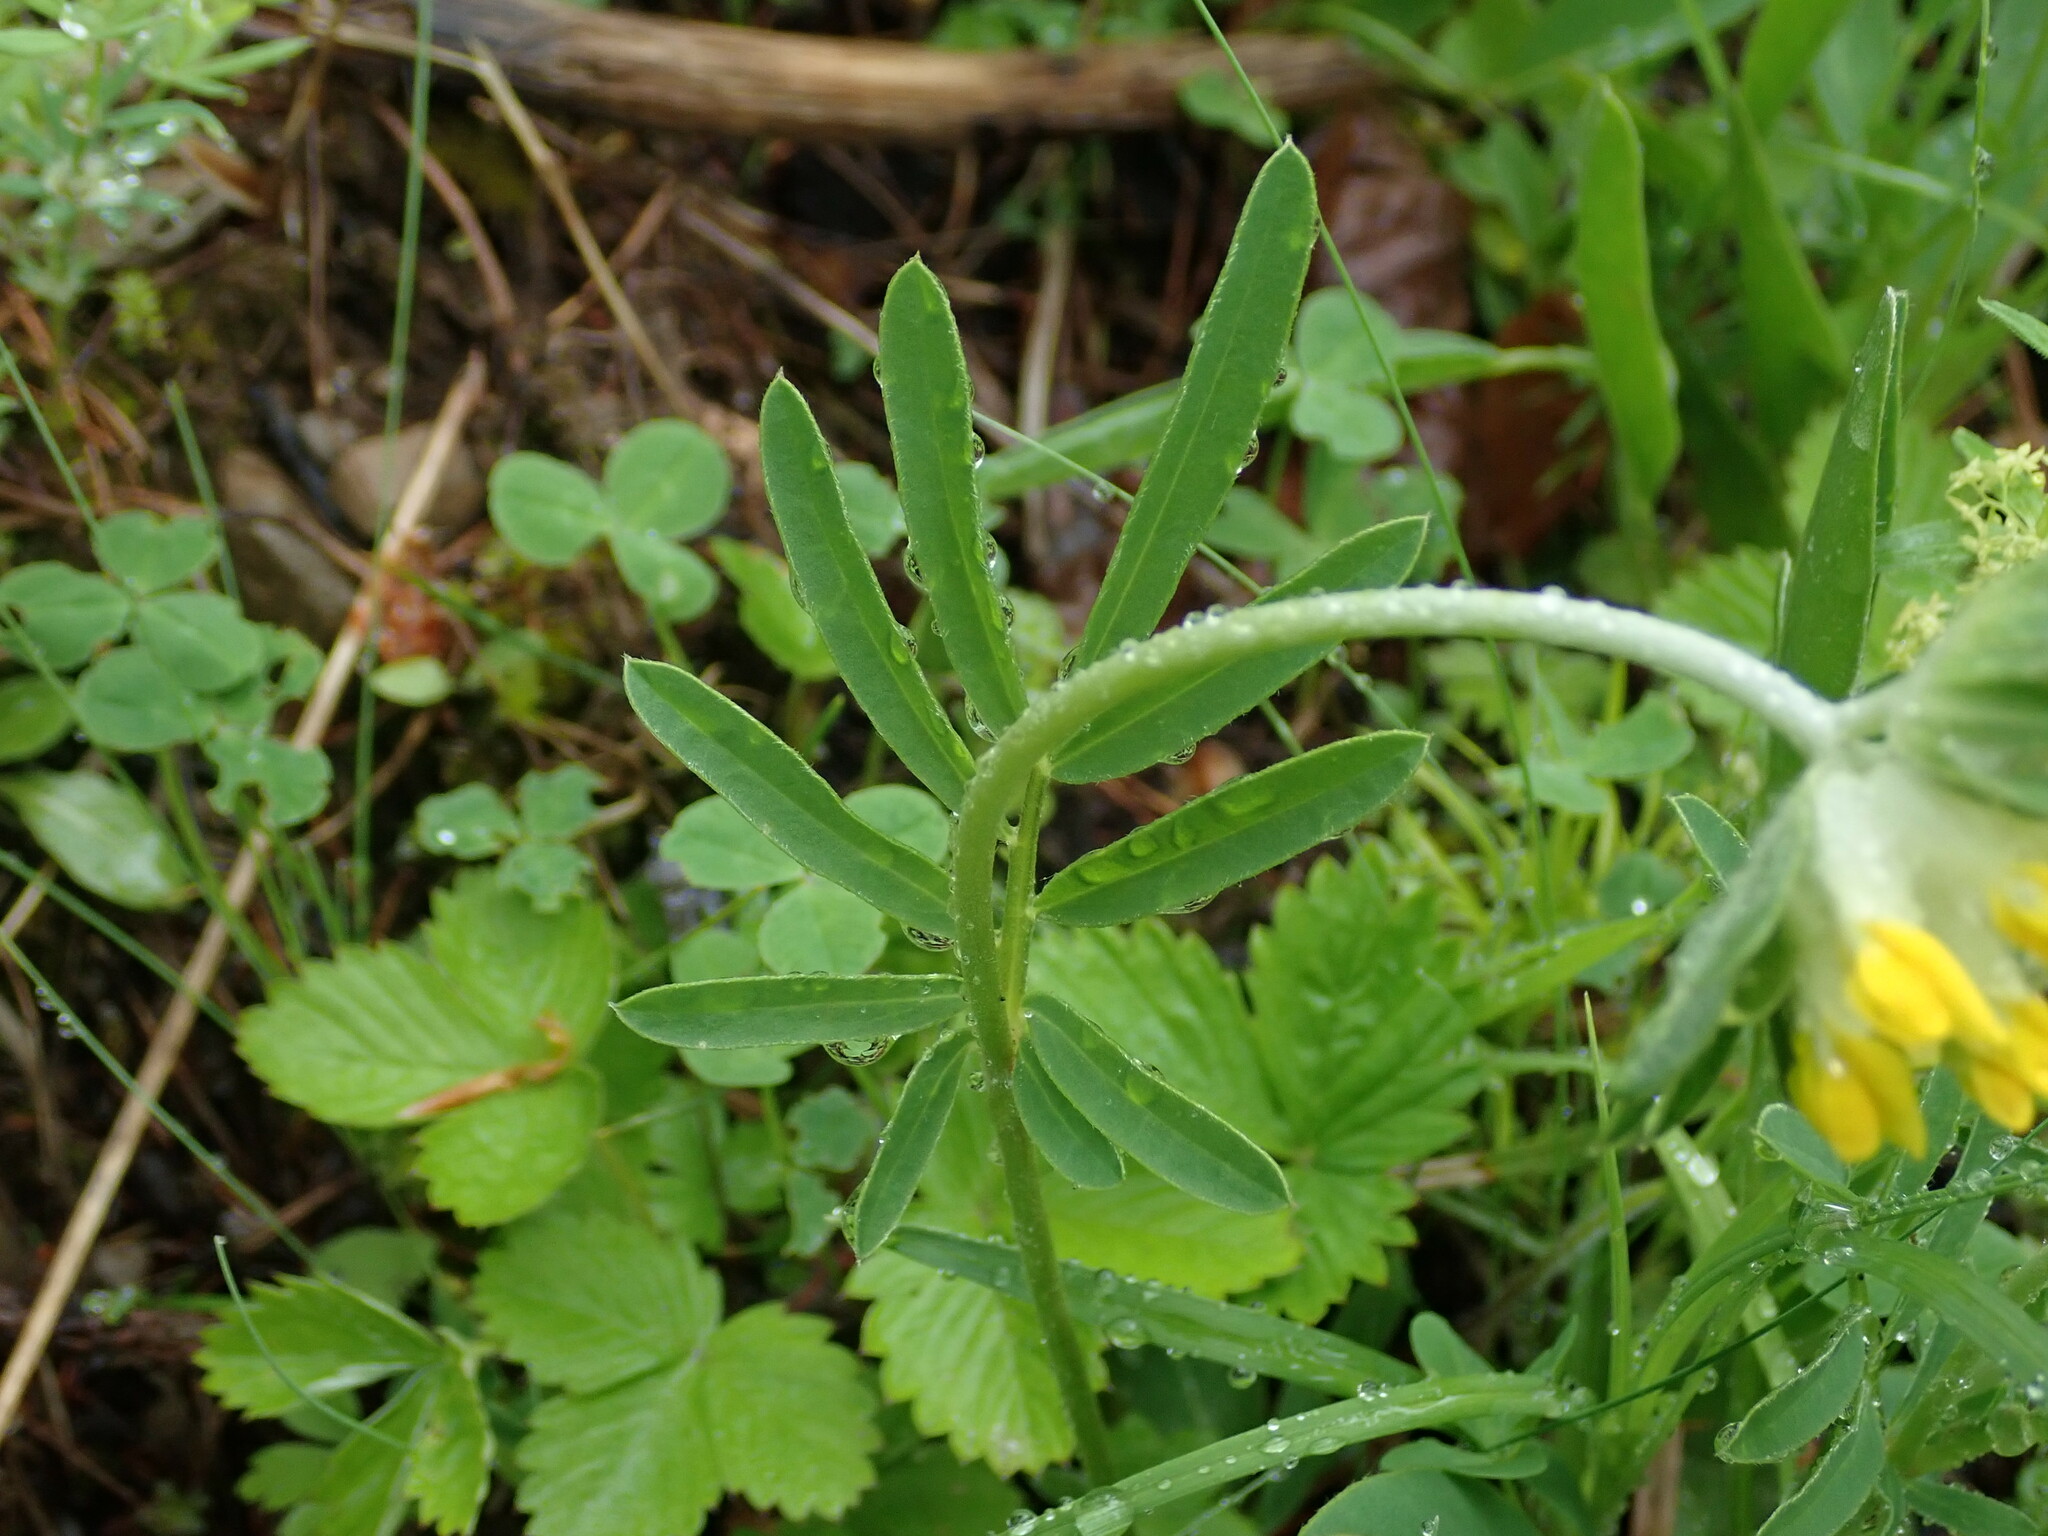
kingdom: Plantae
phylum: Tracheophyta
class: Magnoliopsida
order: Fabales
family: Fabaceae
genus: Anthyllis
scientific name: Anthyllis vulneraria
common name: Kidney vetch
